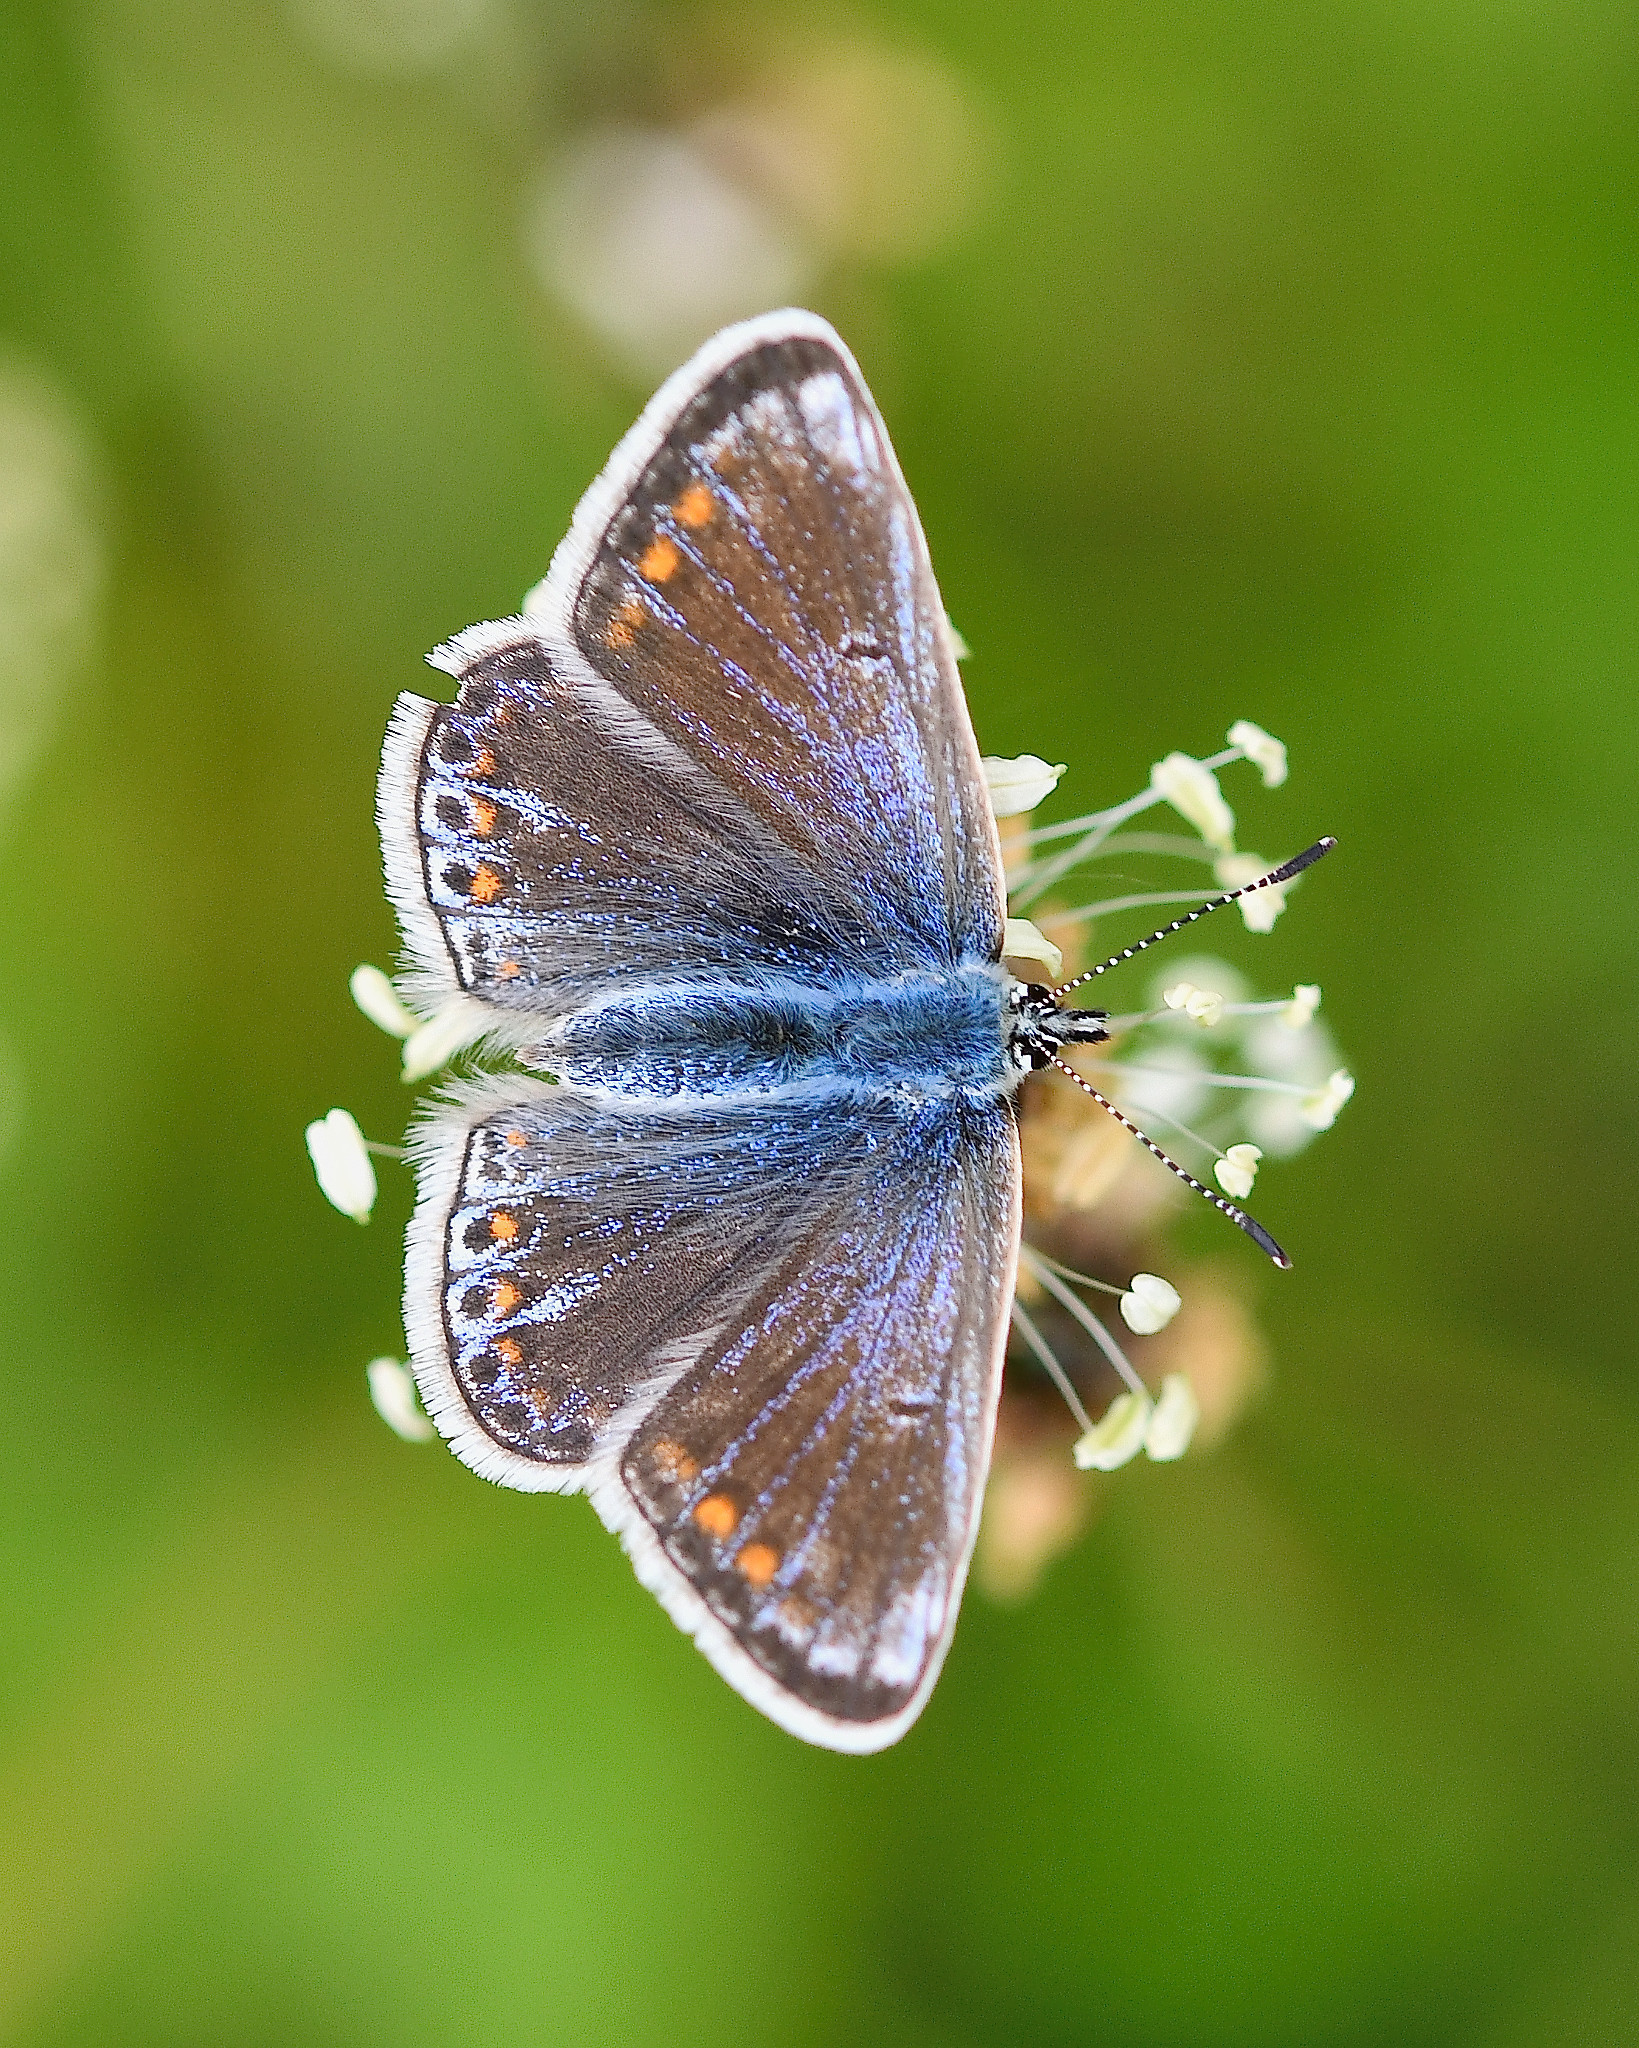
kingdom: Animalia
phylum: Arthropoda
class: Insecta
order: Lepidoptera
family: Lycaenidae
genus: Polyommatus
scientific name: Polyommatus icarus
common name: Common blue
